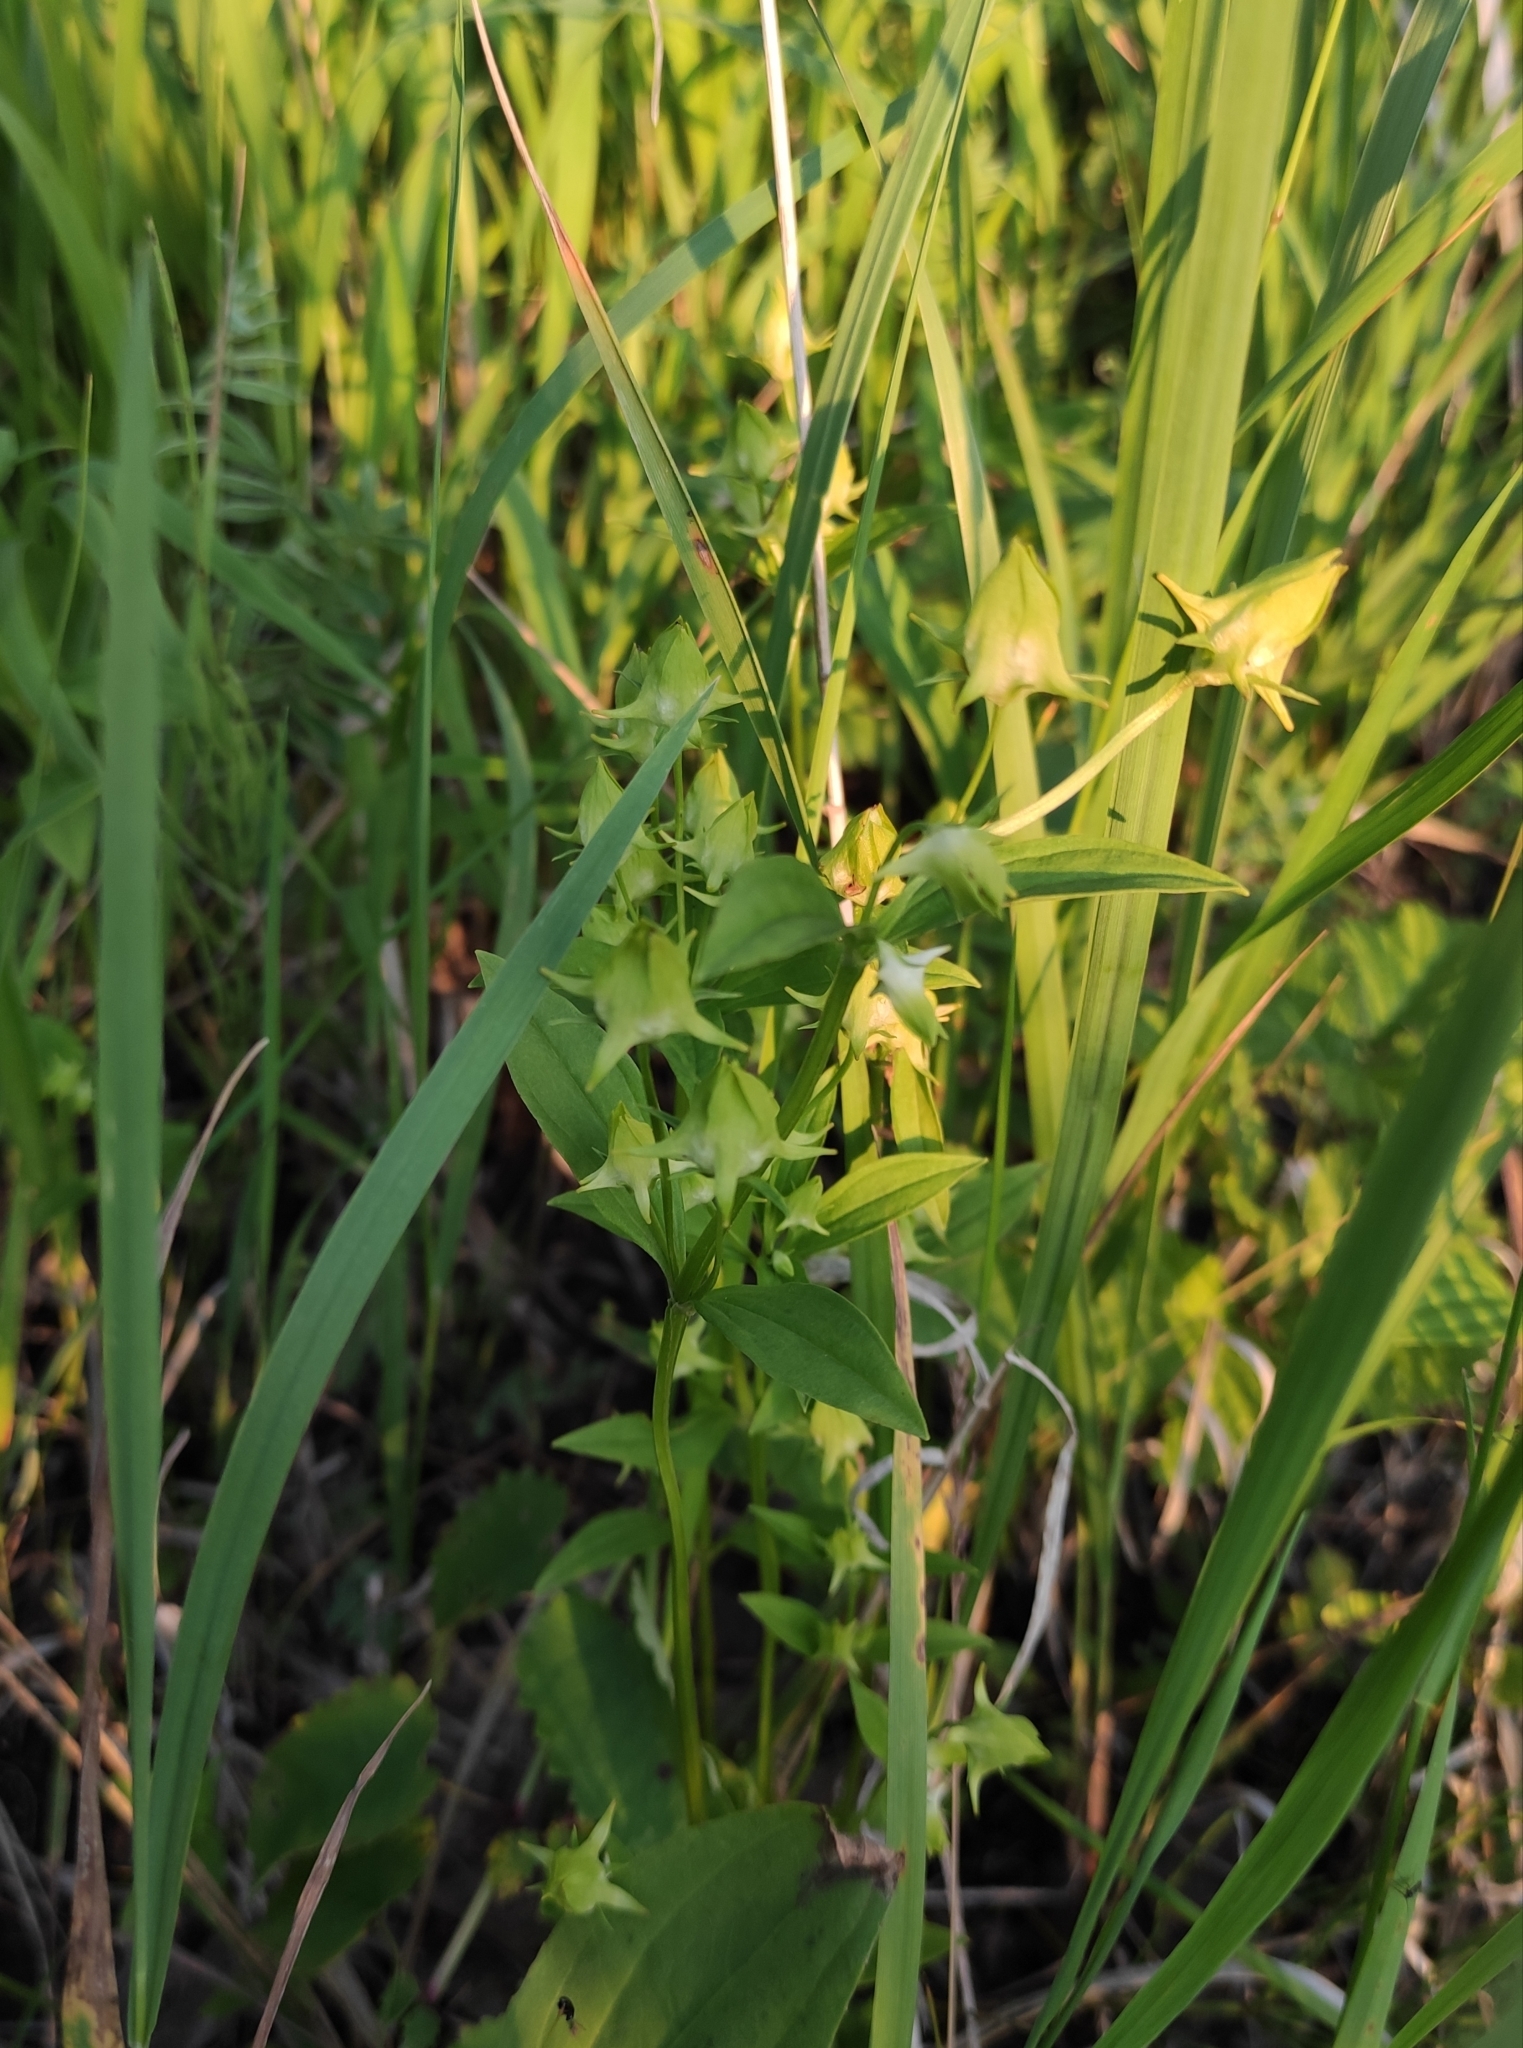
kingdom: Plantae
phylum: Tracheophyta
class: Magnoliopsida
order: Gentianales
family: Gentianaceae
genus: Halenia
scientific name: Halenia corniculata
